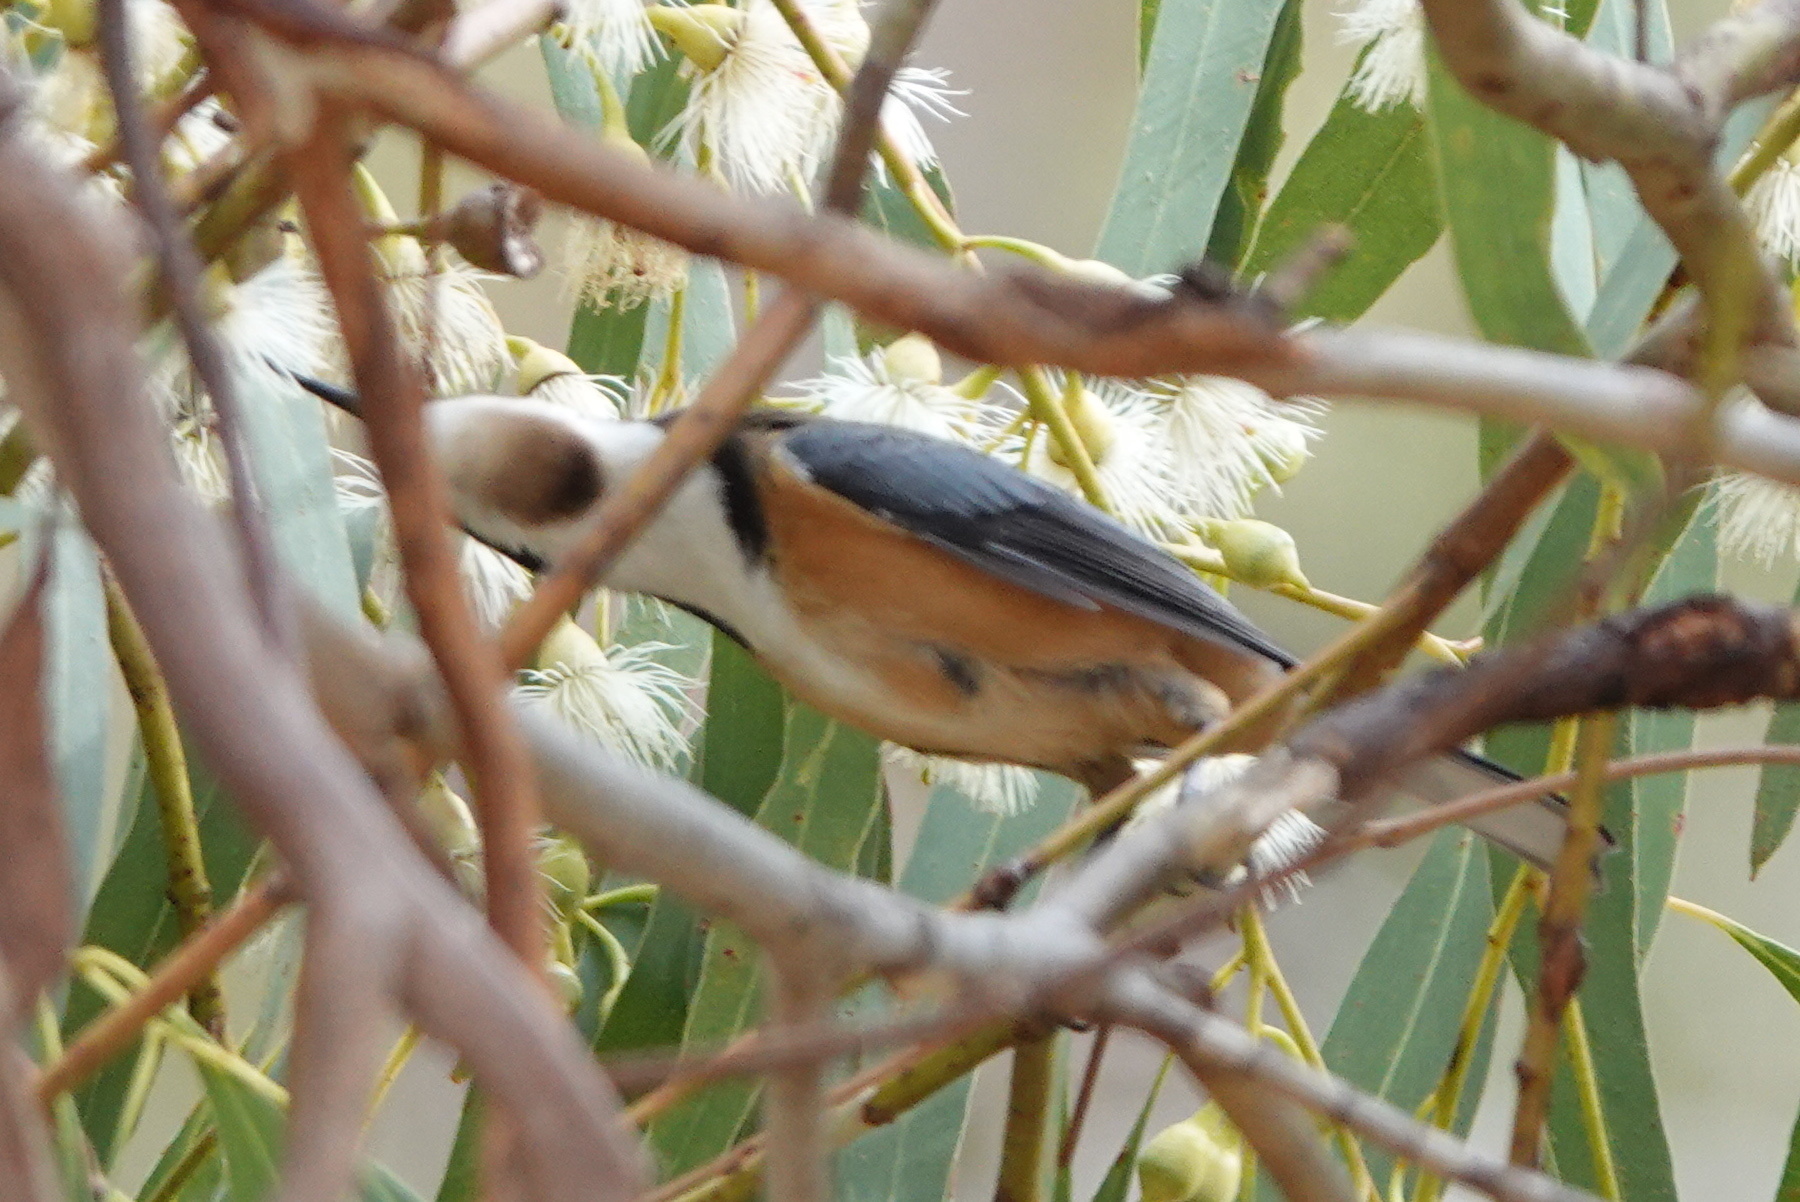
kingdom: Animalia
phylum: Chordata
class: Aves
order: Passeriformes
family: Meliphagidae
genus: Acanthorhynchus
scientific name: Acanthorhynchus tenuirostris
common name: Eastern spinebill
